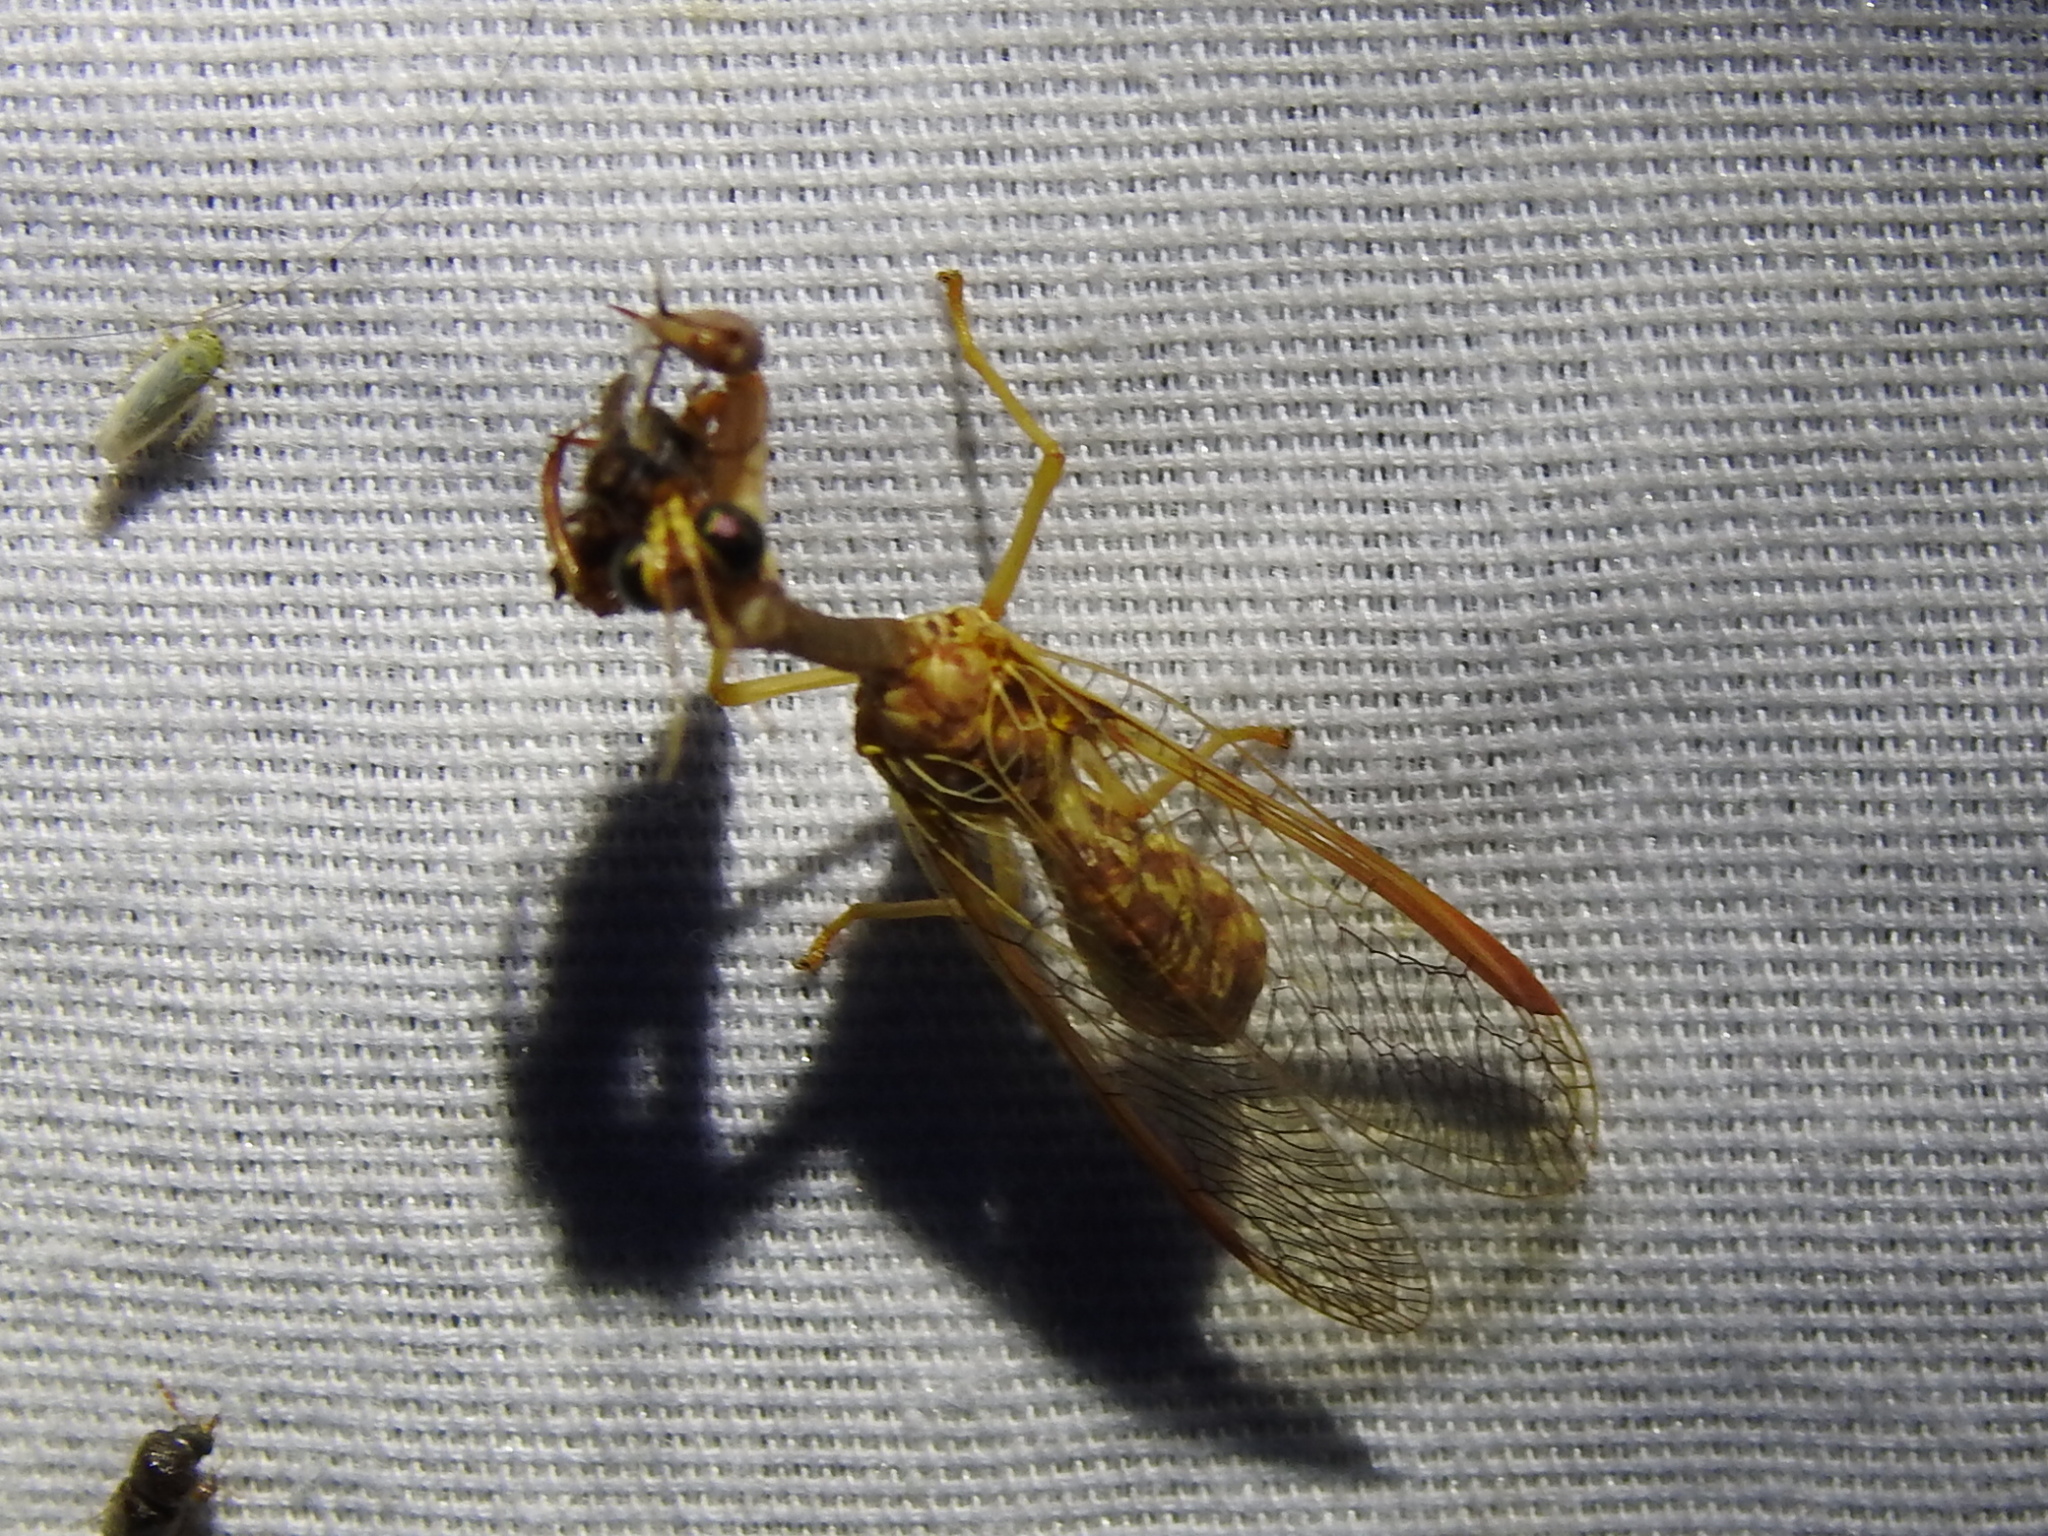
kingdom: Animalia
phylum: Arthropoda
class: Insecta
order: Neuroptera
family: Mantispidae
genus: Dicromantispa
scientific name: Dicromantispa sayi
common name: Say's mantidfly
